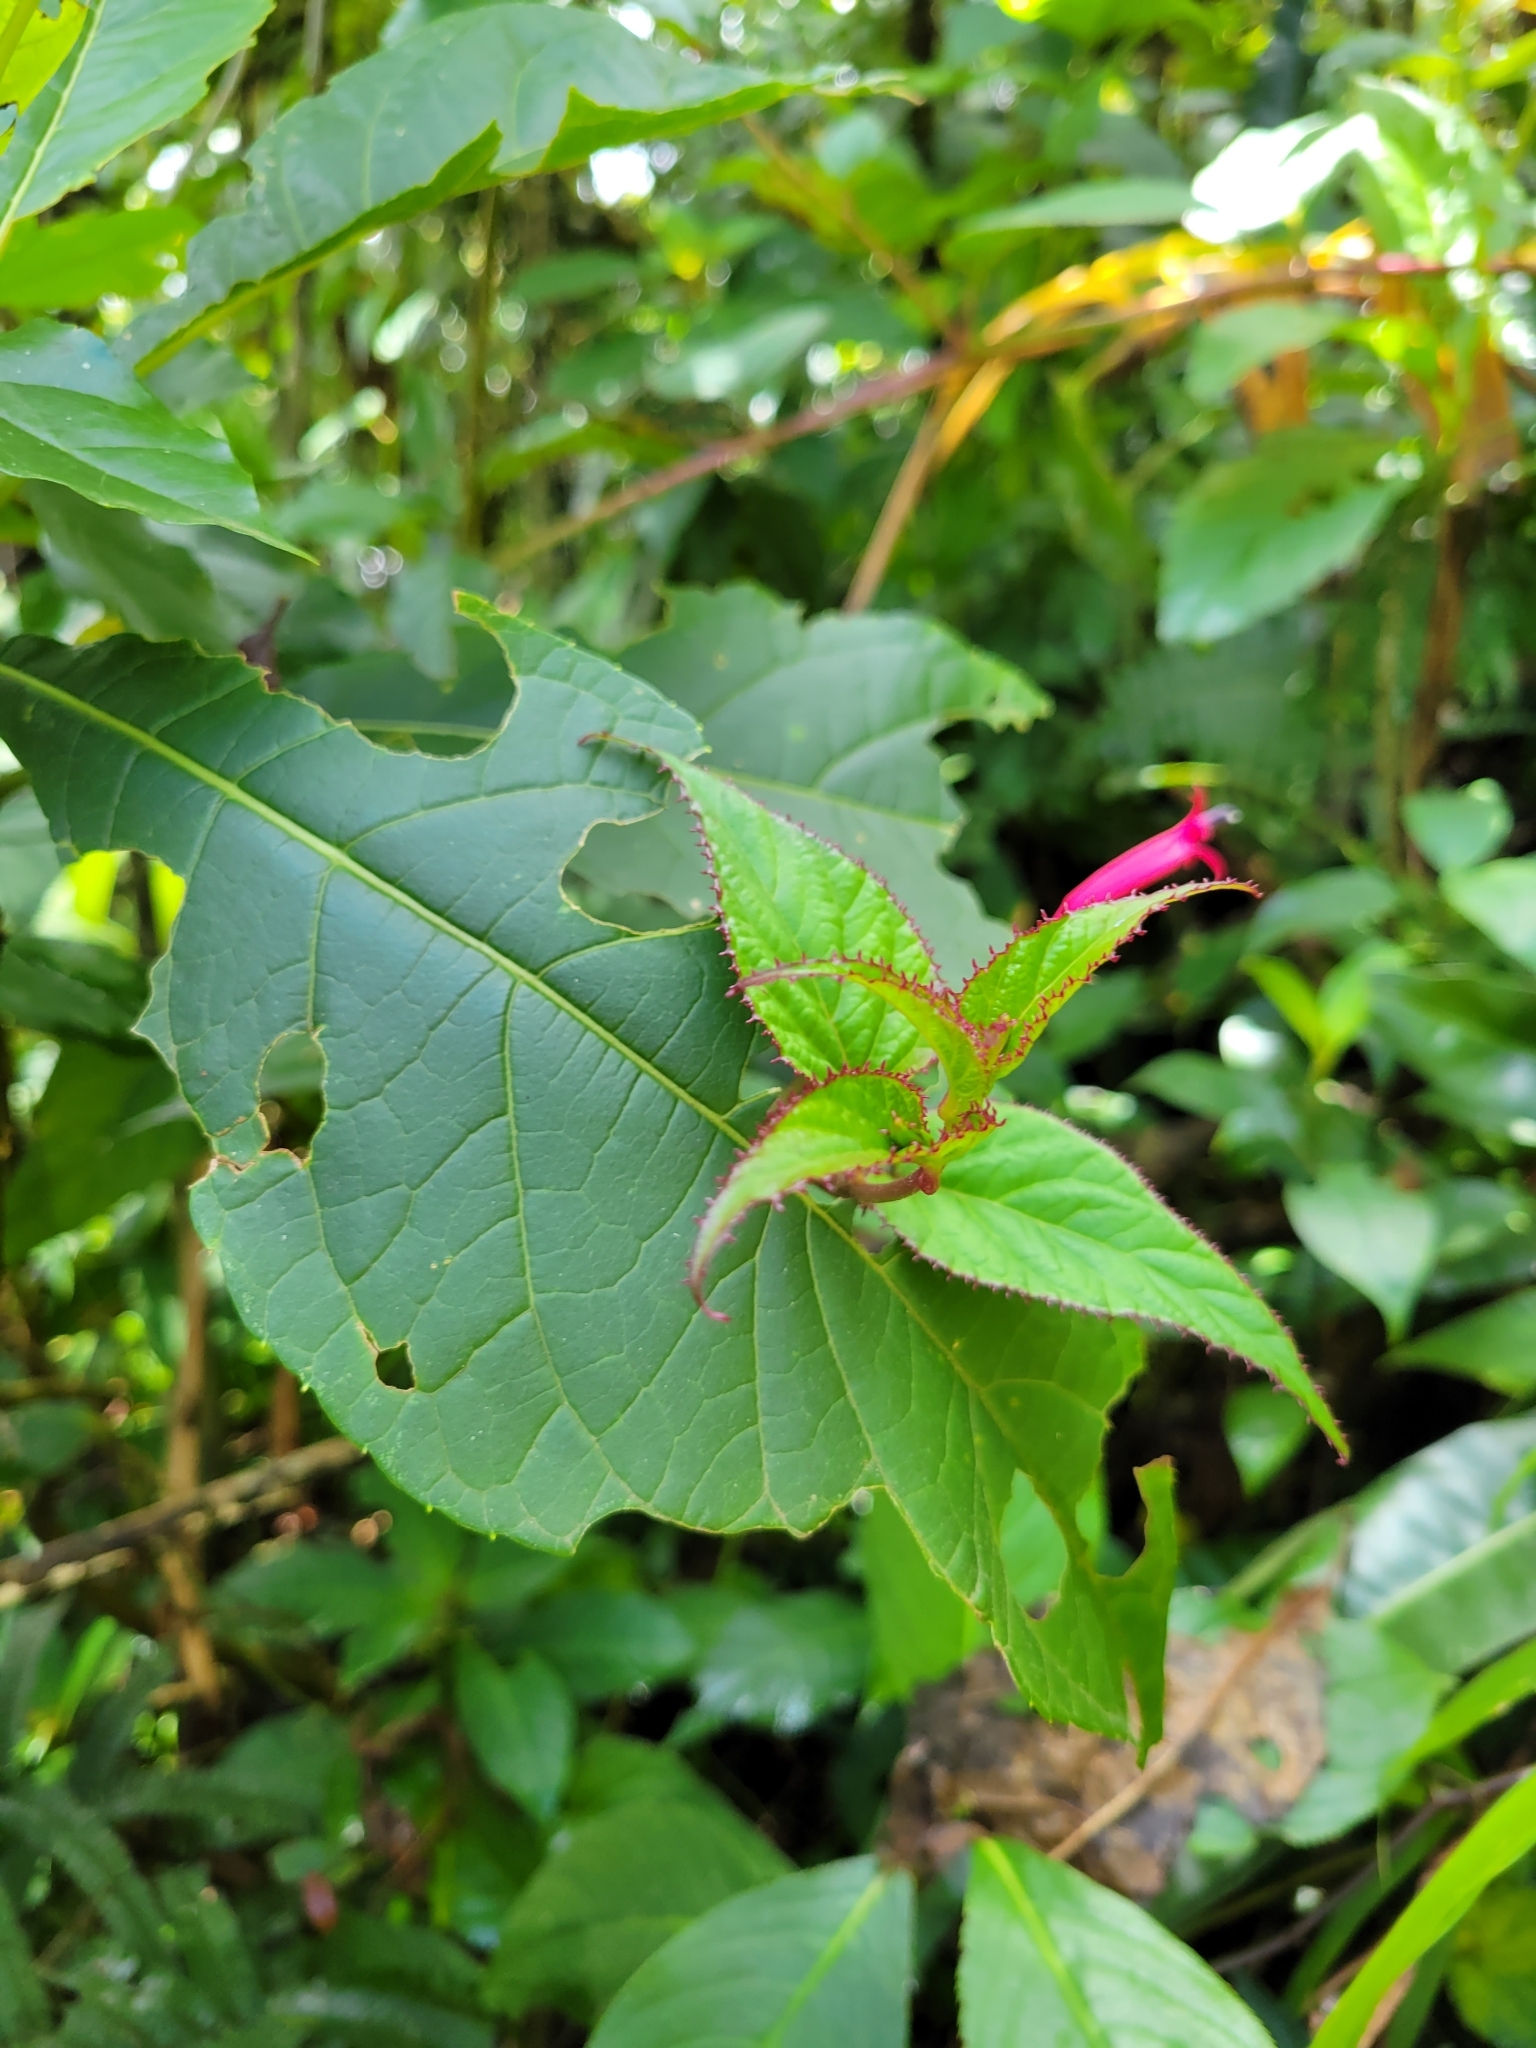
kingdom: Plantae
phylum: Tracheophyta
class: Magnoliopsida
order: Asterales
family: Campanulaceae
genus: Centropogon
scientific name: Centropogon costaricae
